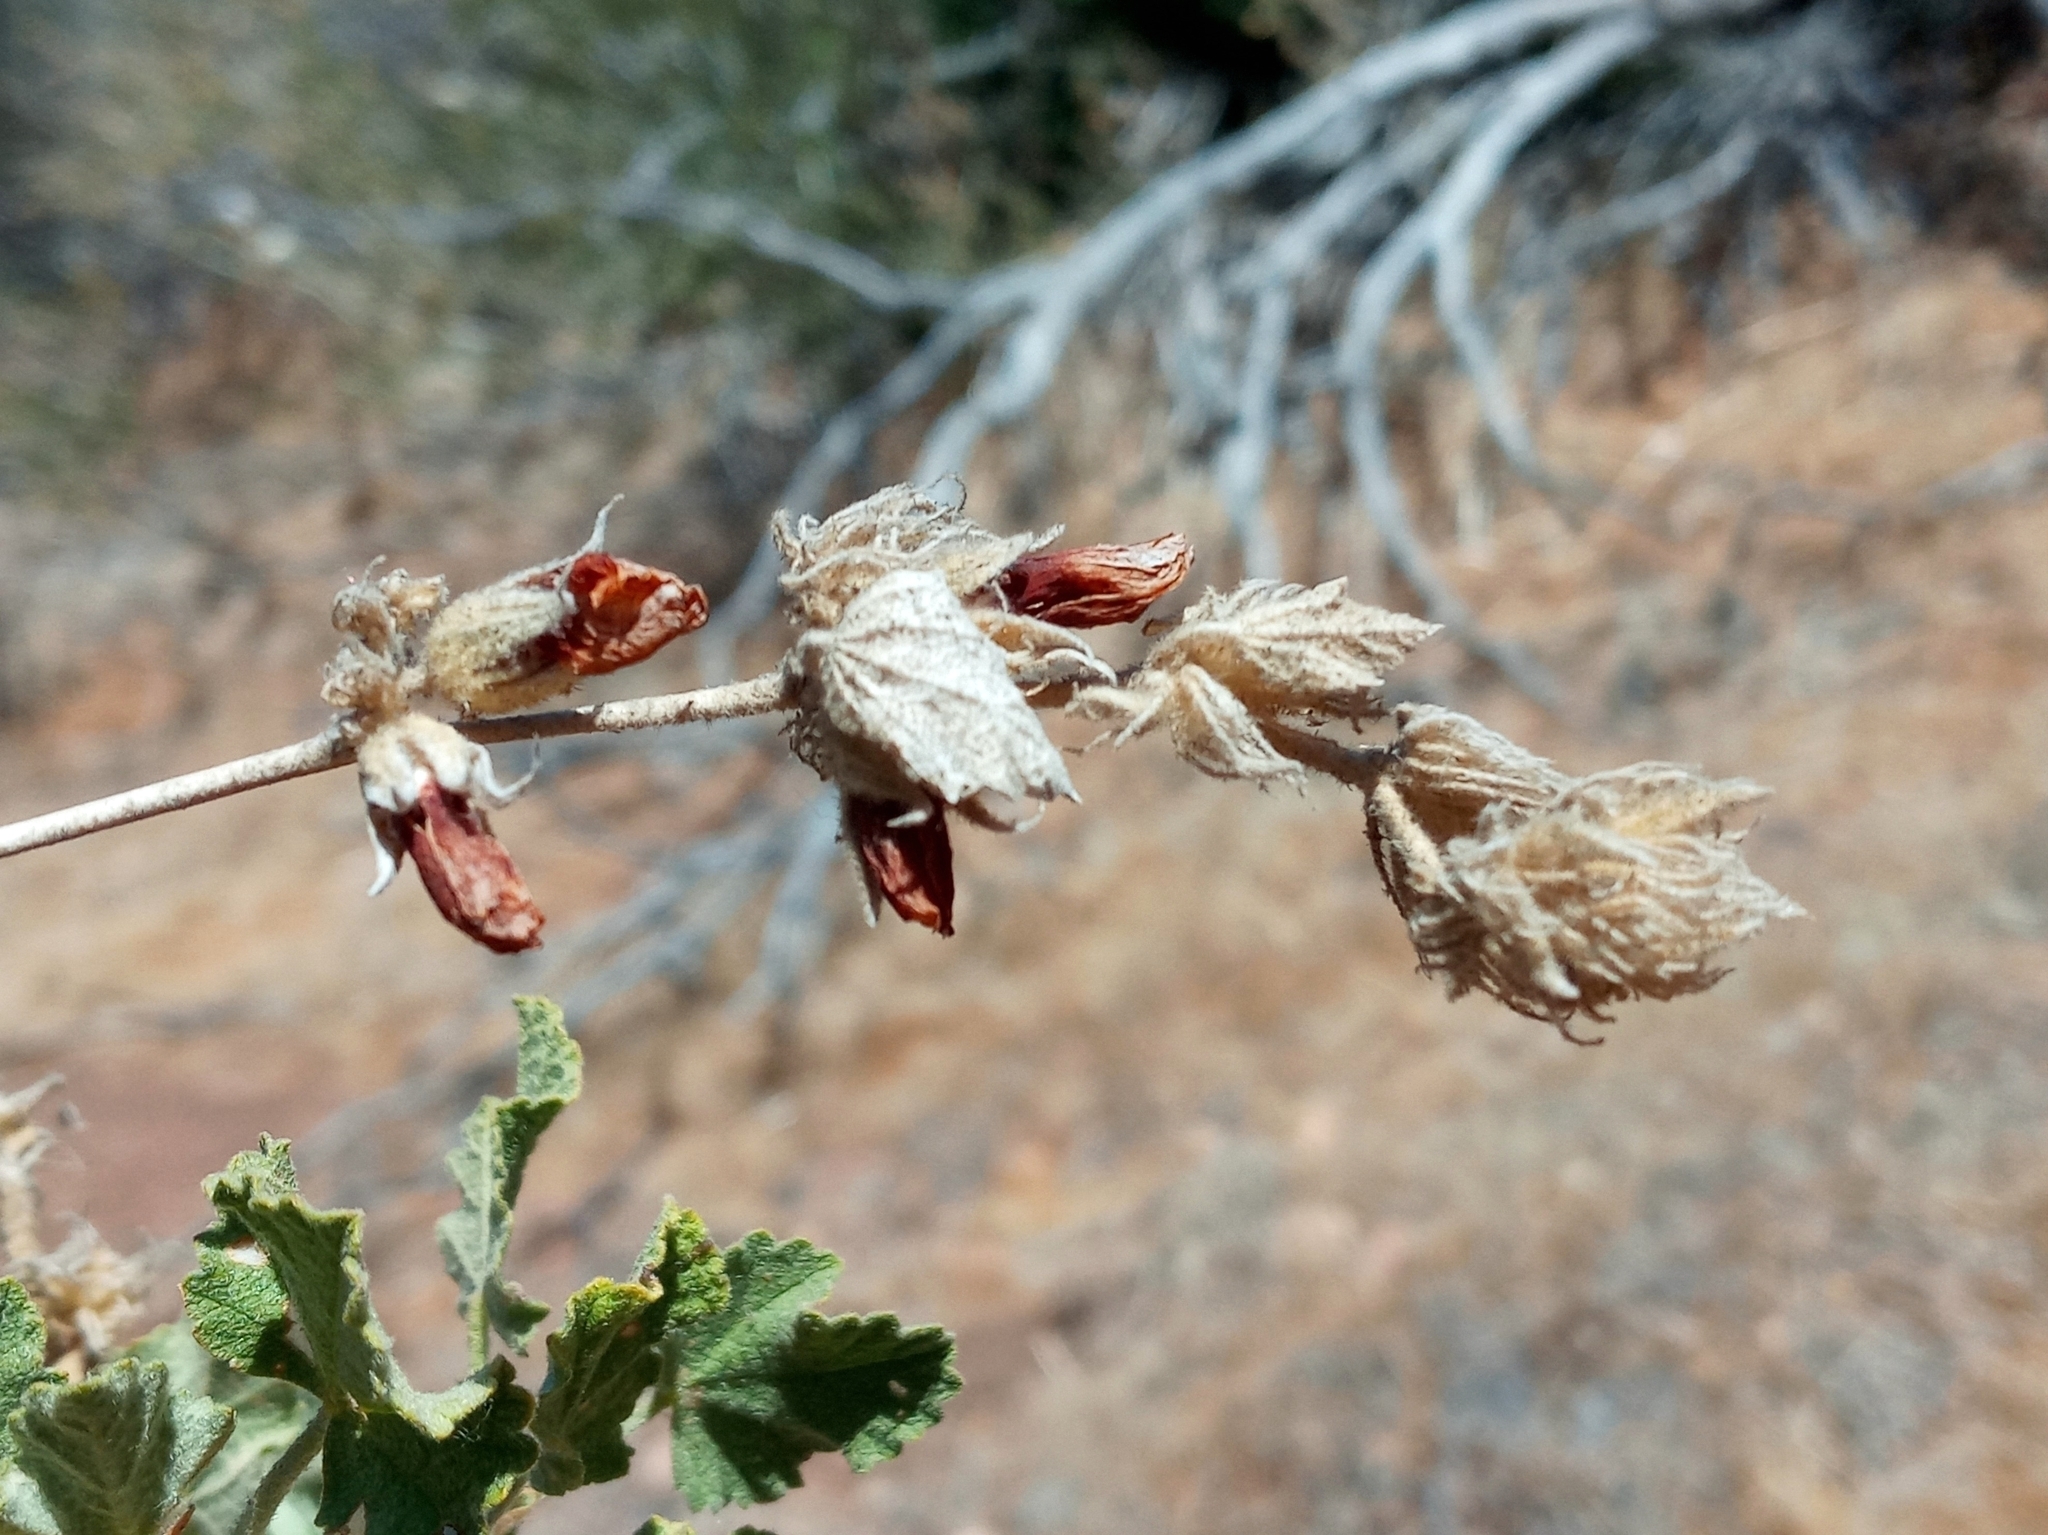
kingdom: Plantae
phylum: Tracheophyta
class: Magnoliopsida
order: Malvales
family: Malvaceae
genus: Malacothamnus
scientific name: Malacothamnus marrubioides
